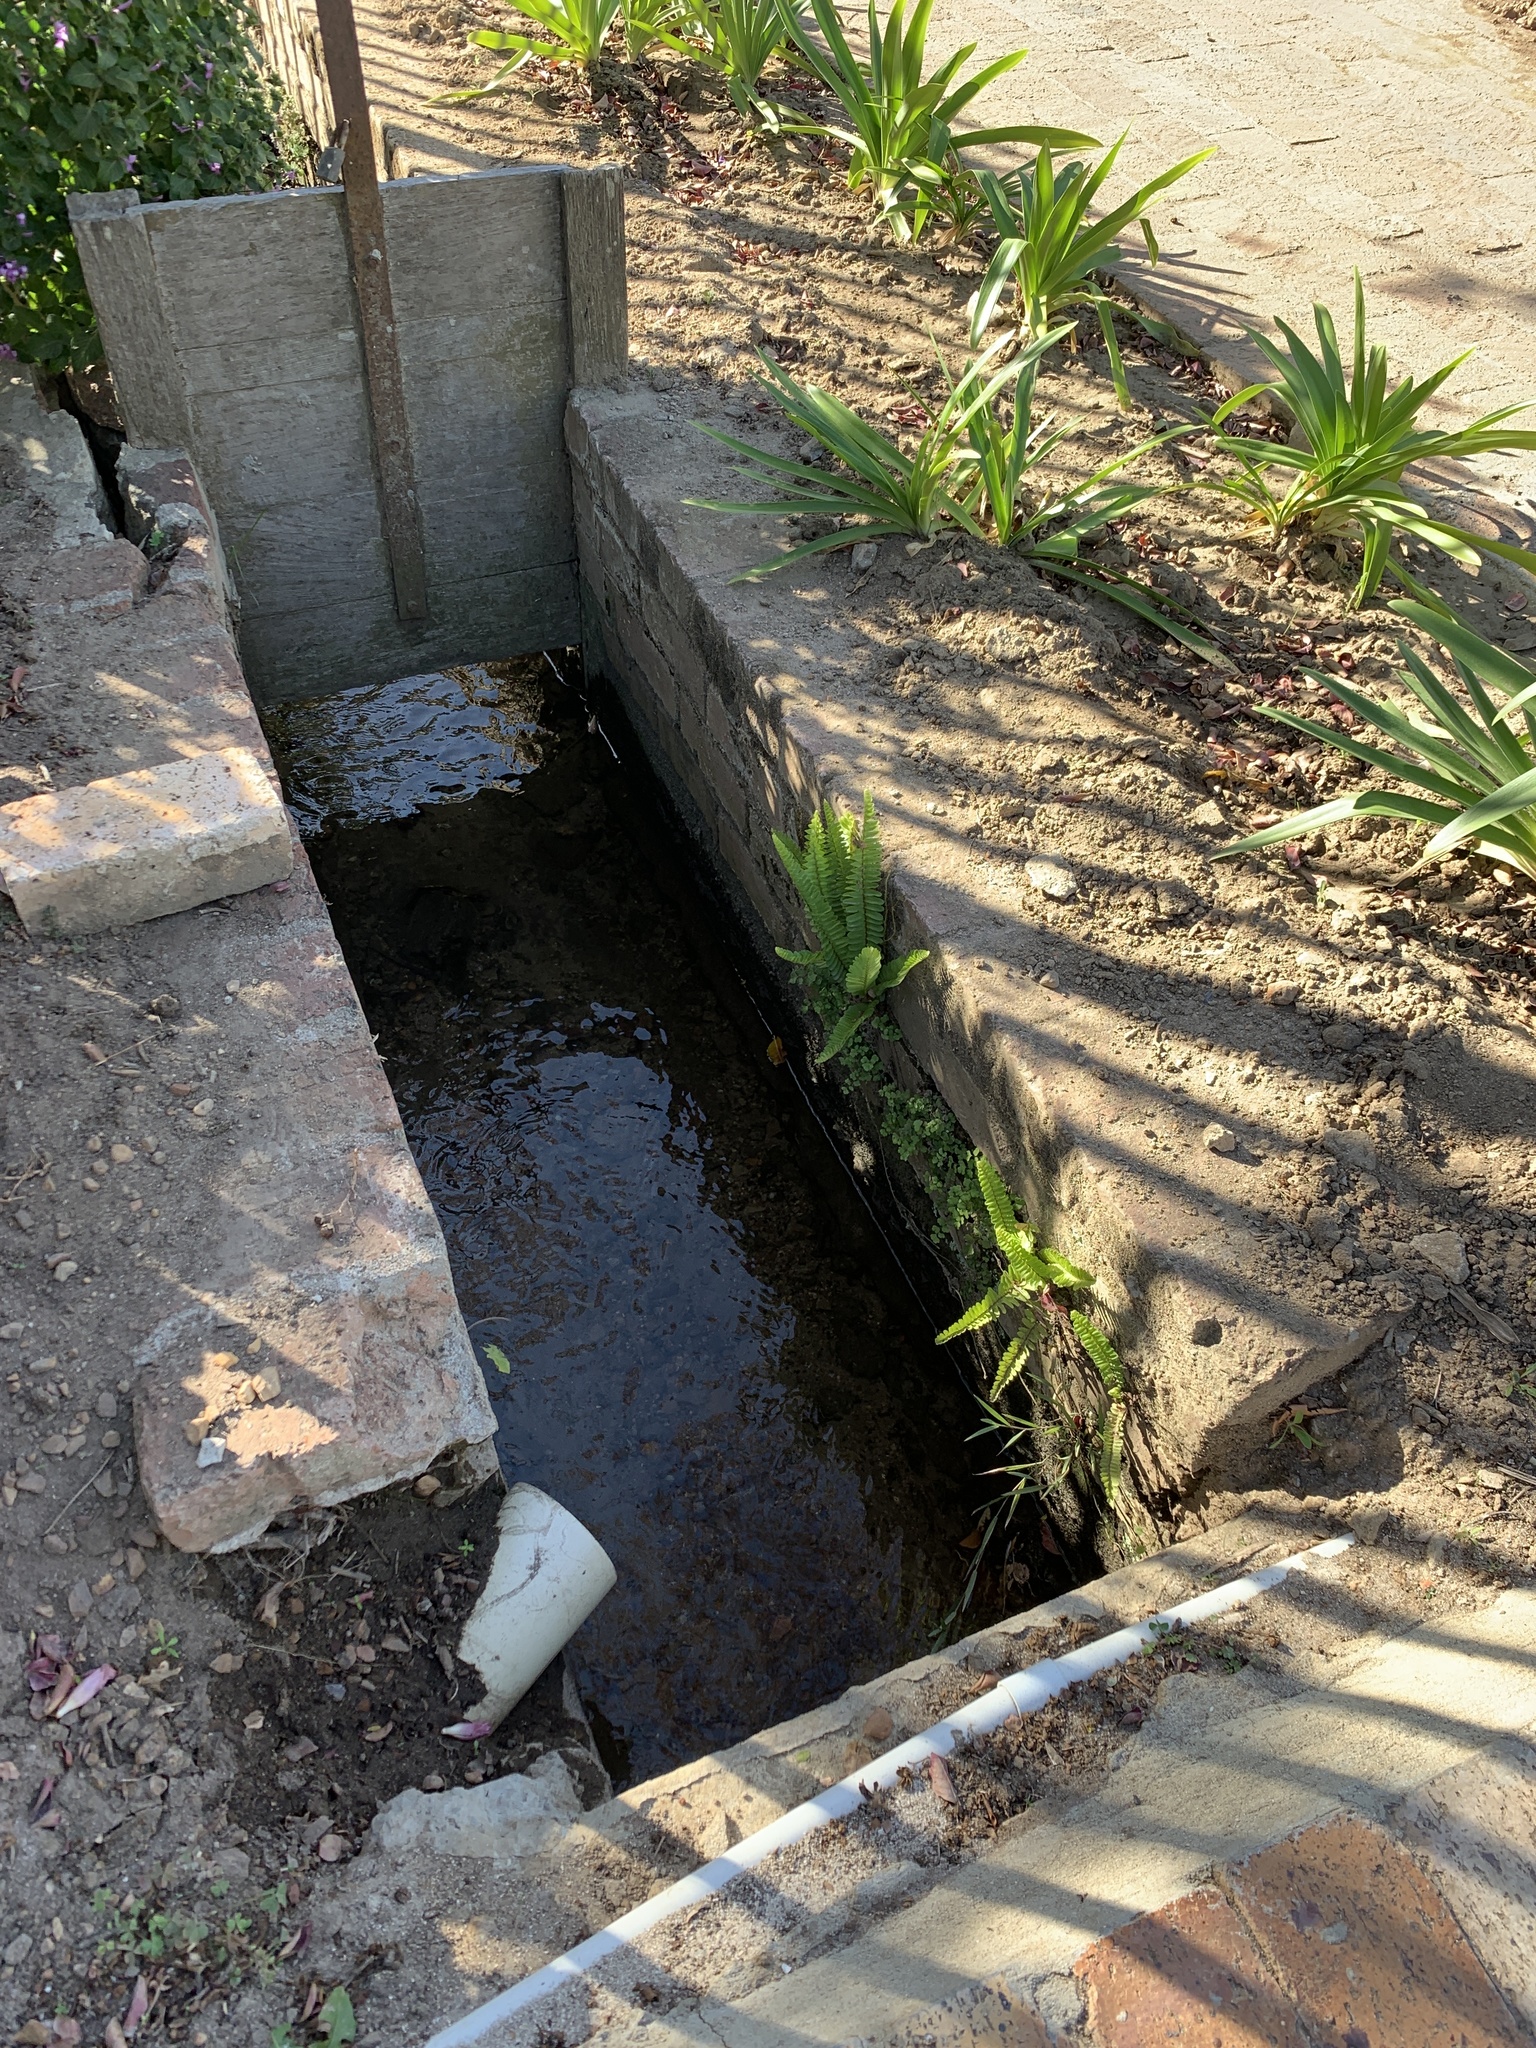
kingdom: Plantae
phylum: Tracheophyta
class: Polypodiopsida
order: Polypodiales
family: Nephrolepidaceae
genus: Nephrolepis
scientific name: Nephrolepis cordifolia
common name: Narrow swordfern
